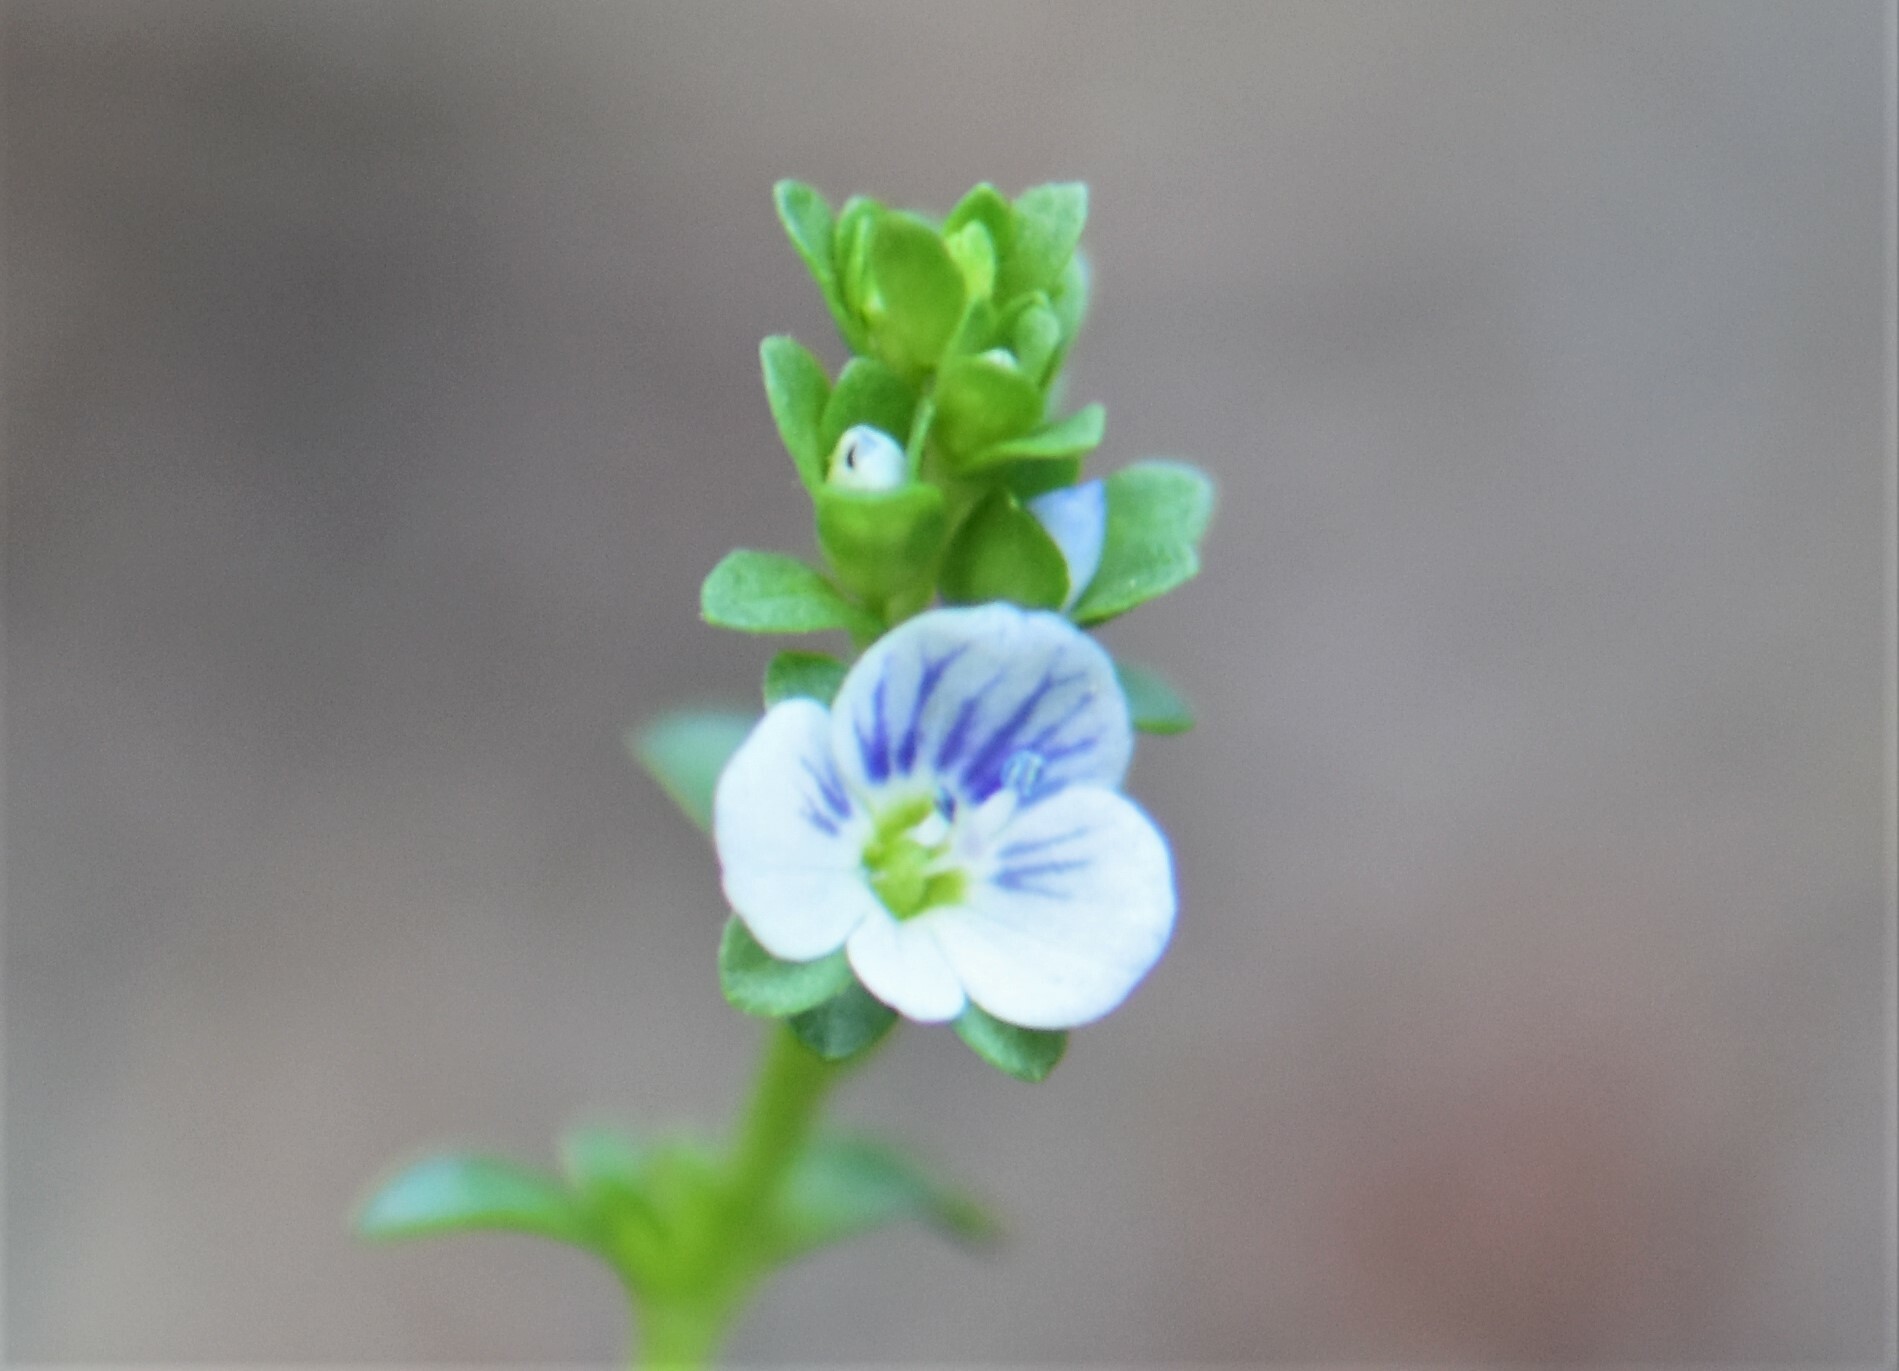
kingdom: Plantae
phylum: Tracheophyta
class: Magnoliopsida
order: Lamiales
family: Plantaginaceae
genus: Veronica
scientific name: Veronica serpyllifolia
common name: Thyme-leaved speedwell
